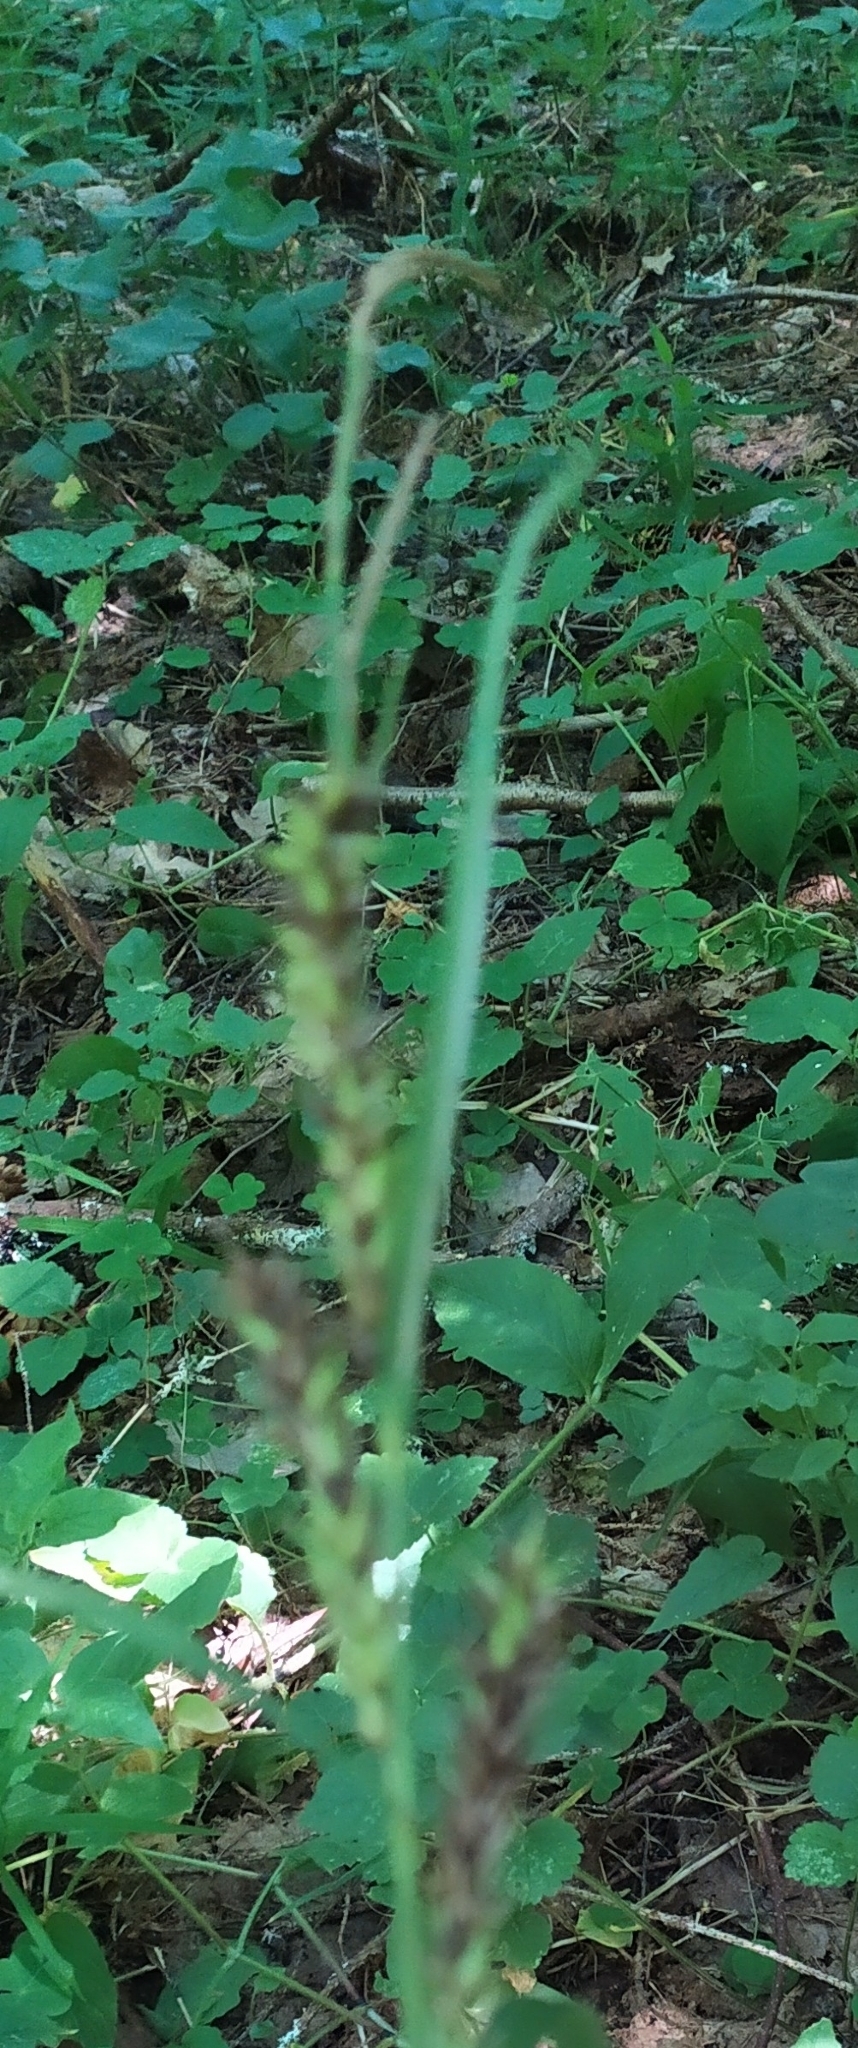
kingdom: Plantae
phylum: Tracheophyta
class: Liliopsida
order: Poales
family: Cyperaceae
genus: Carex
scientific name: Carex sylvatica
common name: Wood-sedge
